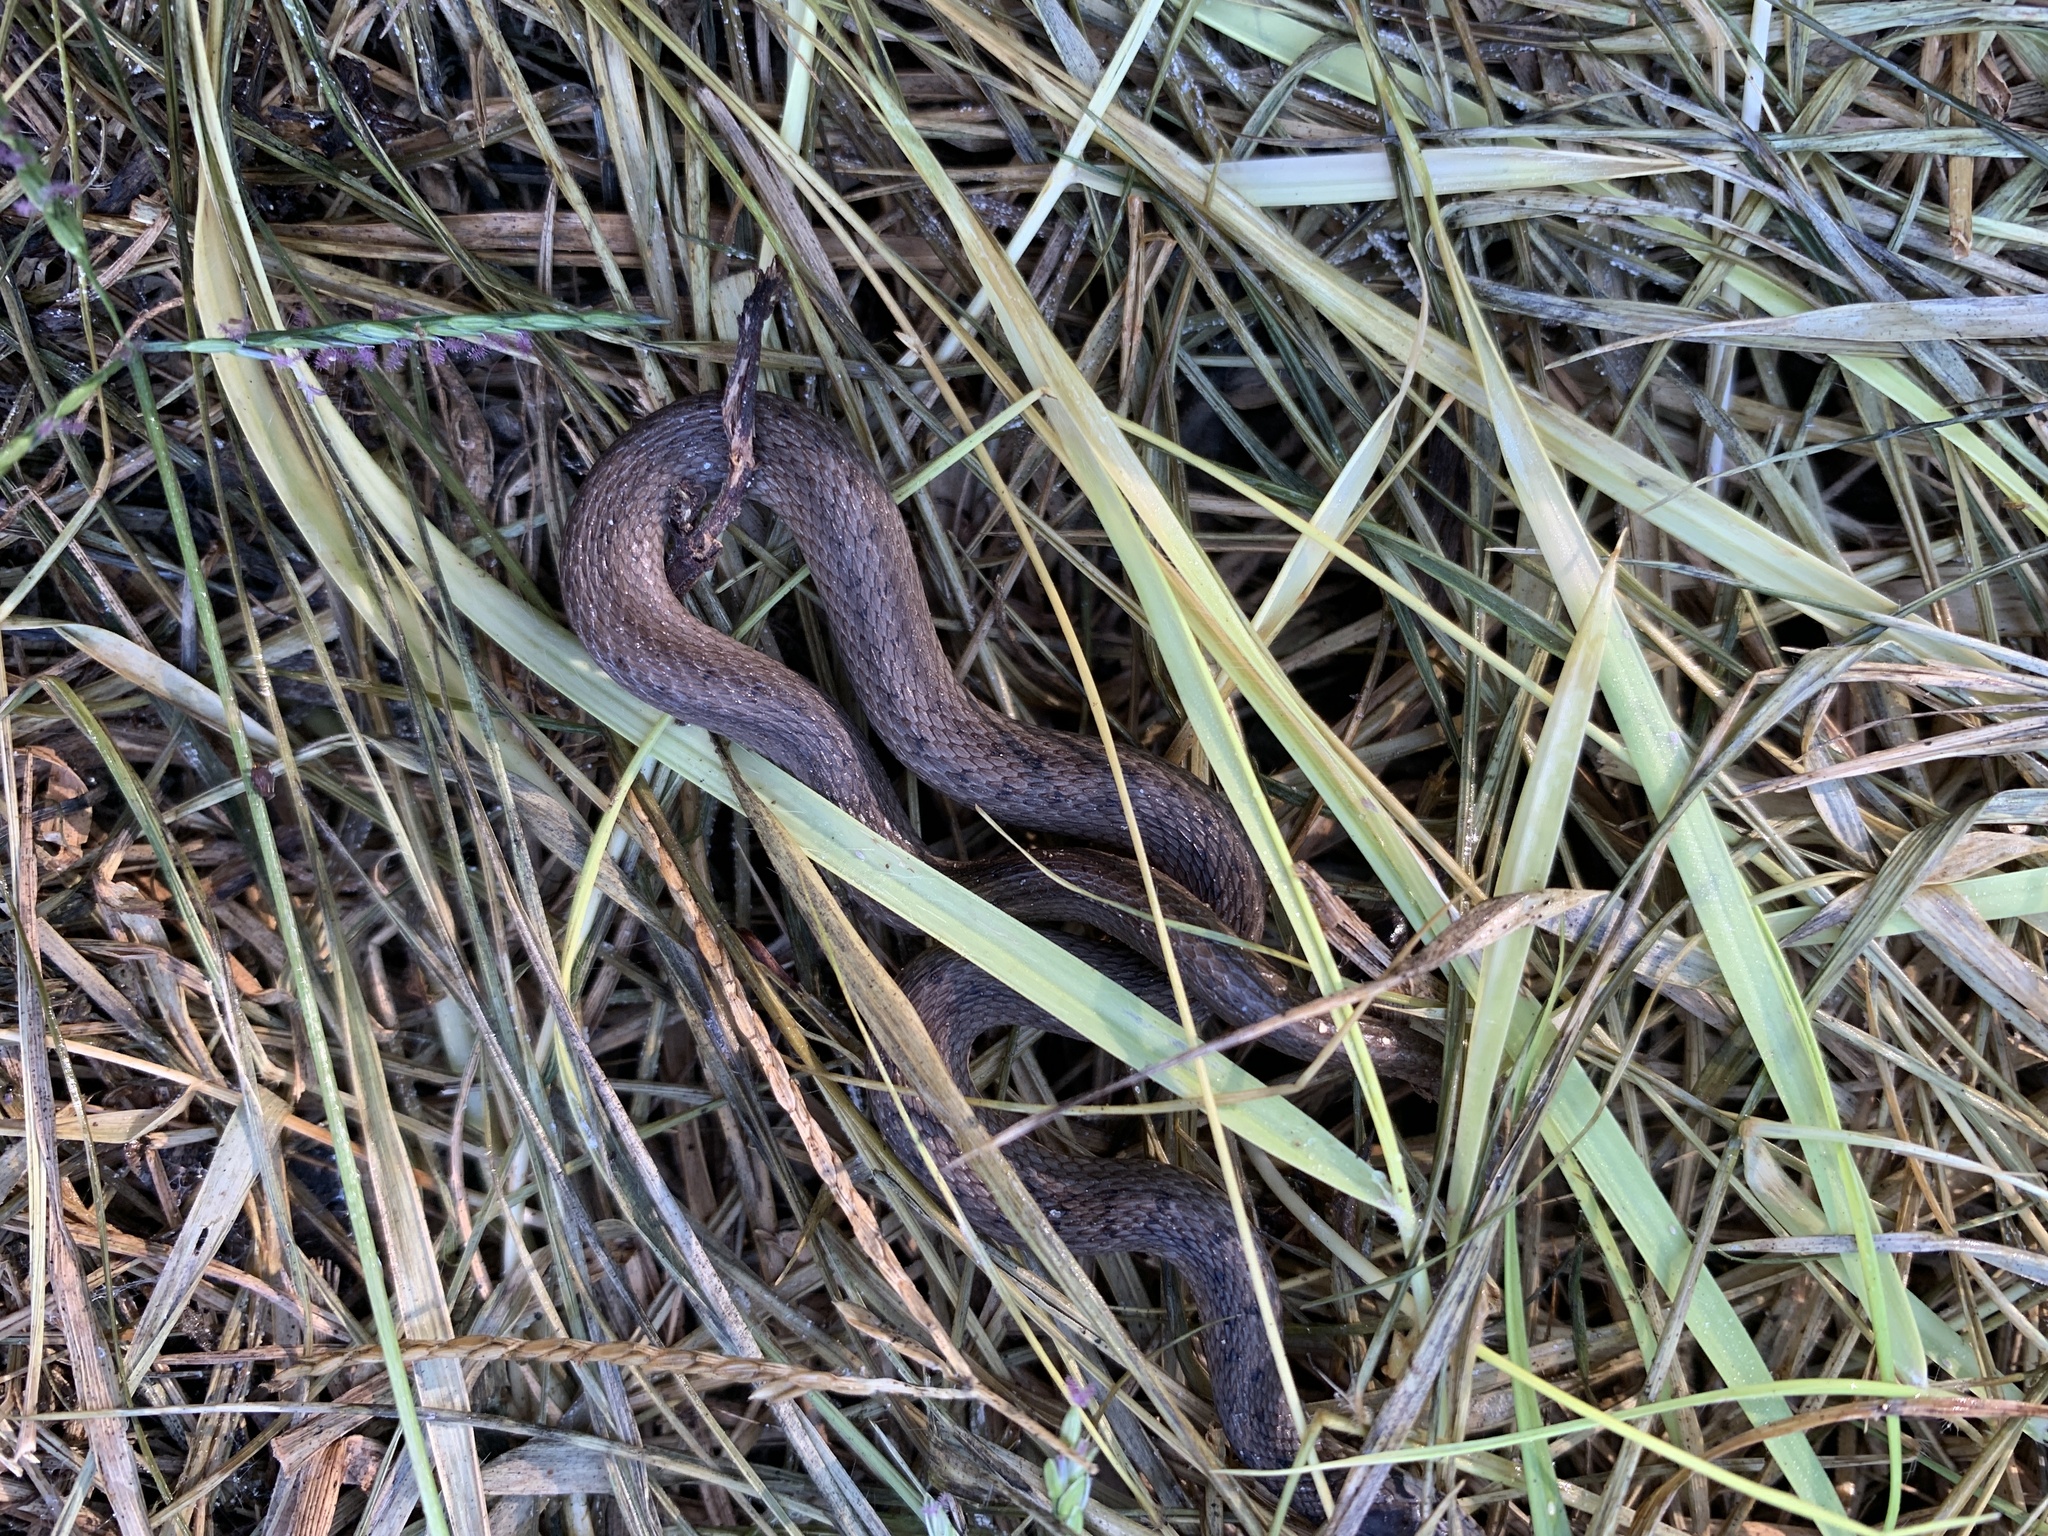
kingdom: Animalia
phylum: Chordata
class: Squamata
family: Colubridae
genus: Storeria
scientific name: Storeria dekayi
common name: (dekay’s) brown snake
